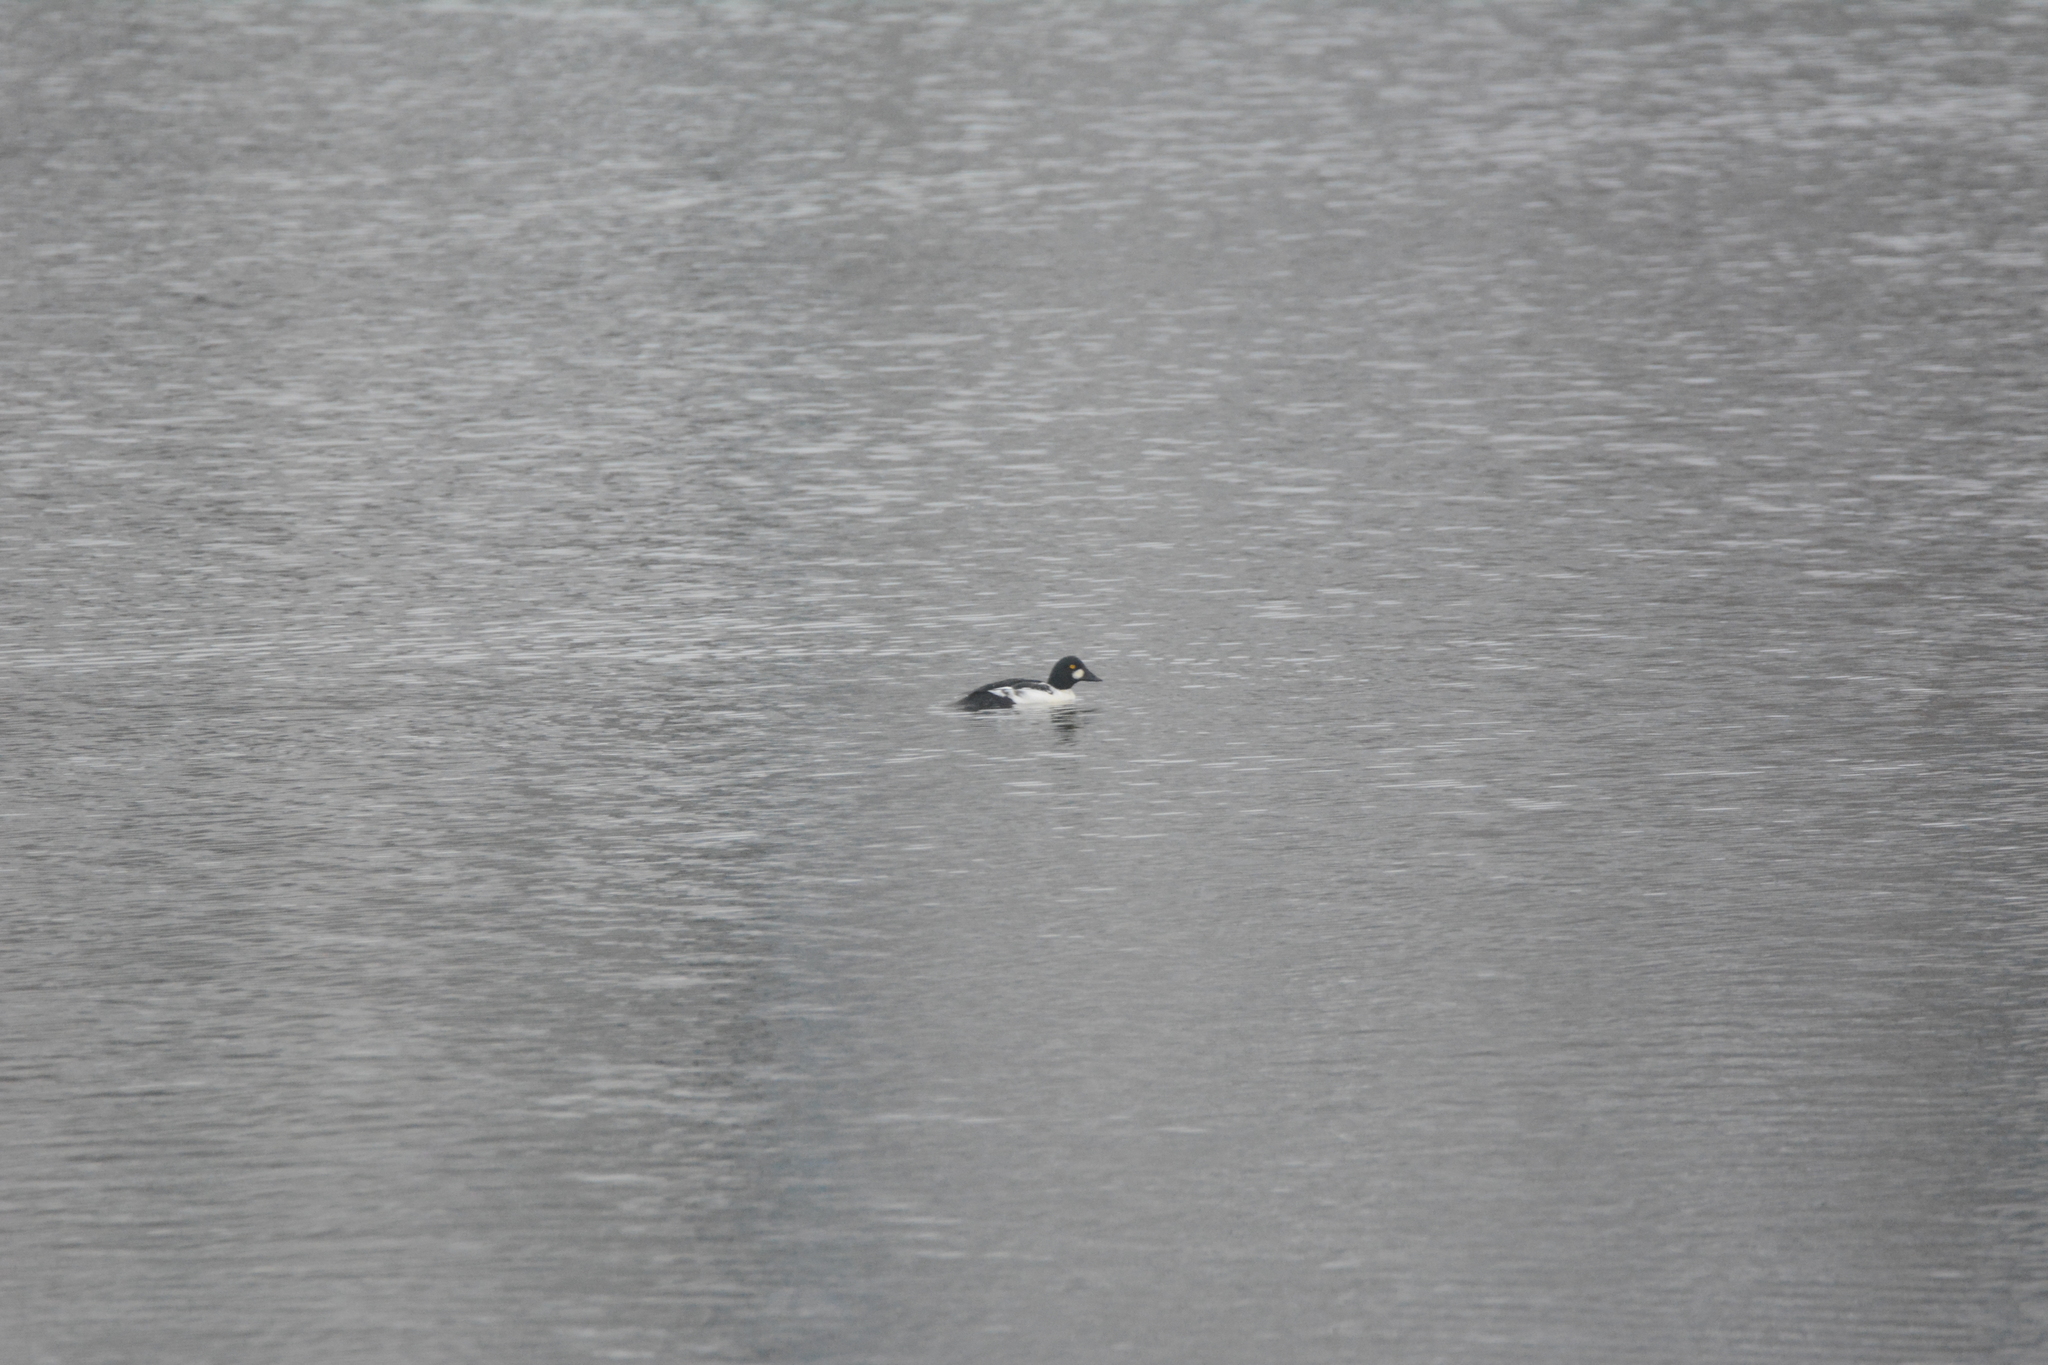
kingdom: Animalia
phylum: Chordata
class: Aves
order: Anseriformes
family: Anatidae
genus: Bucephala
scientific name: Bucephala clangula
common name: Common goldeneye
